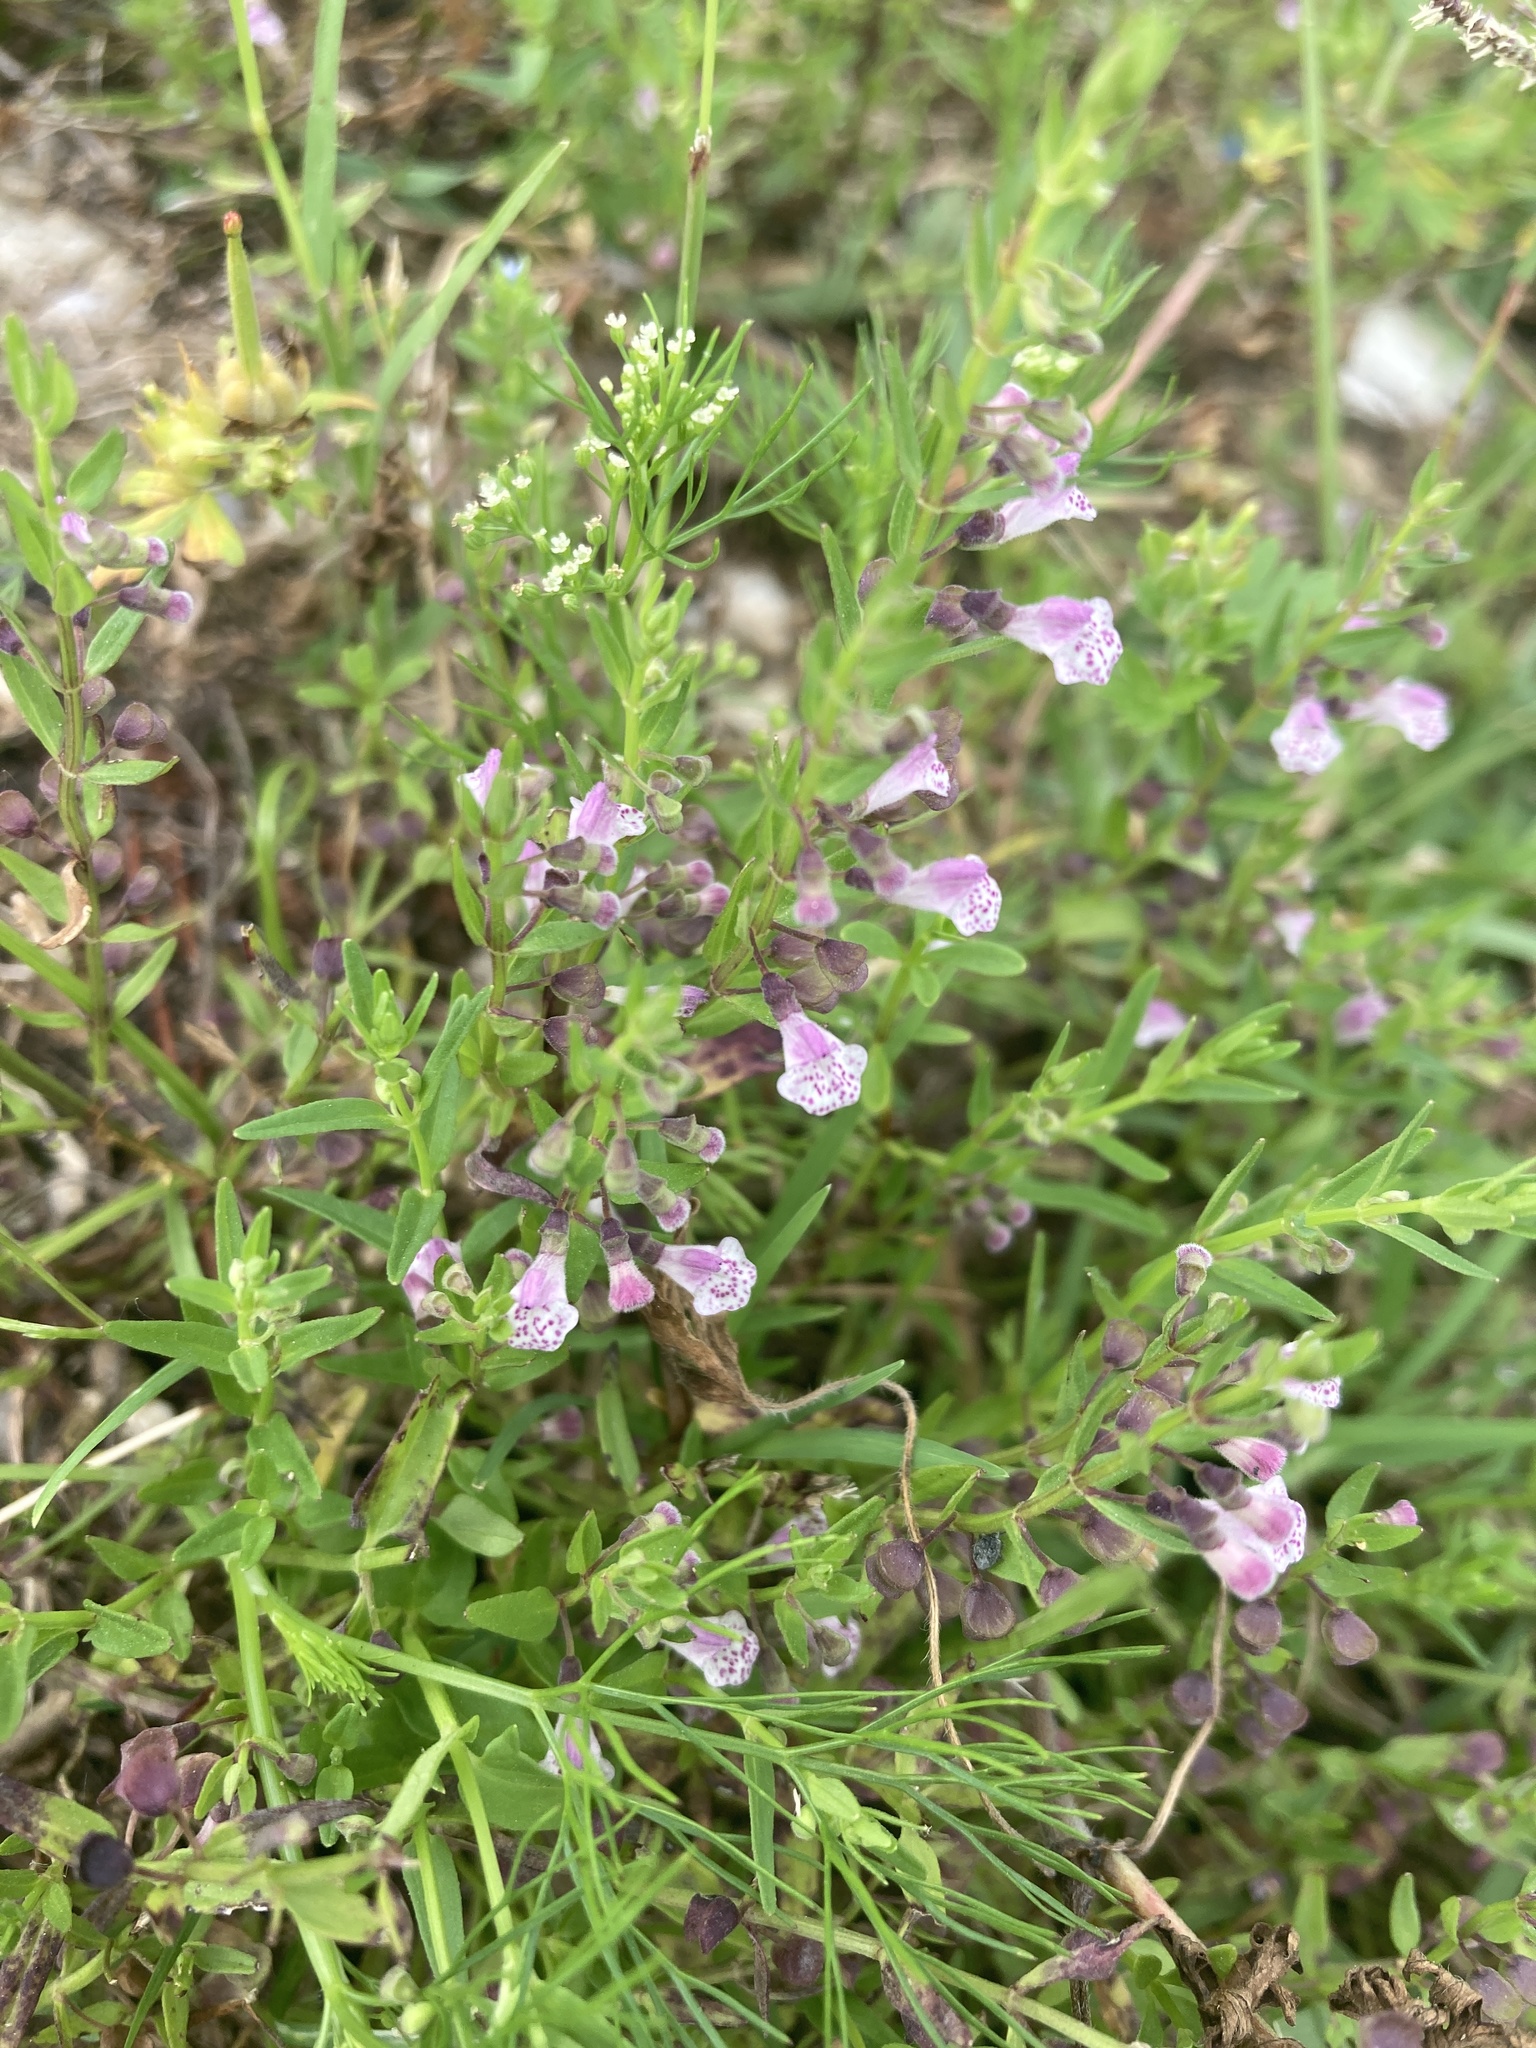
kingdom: Plantae
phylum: Tracheophyta
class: Magnoliopsida
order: Lamiales
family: Lamiaceae
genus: Scutellaria
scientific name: Scutellaria racemosa
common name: South american skullcap
